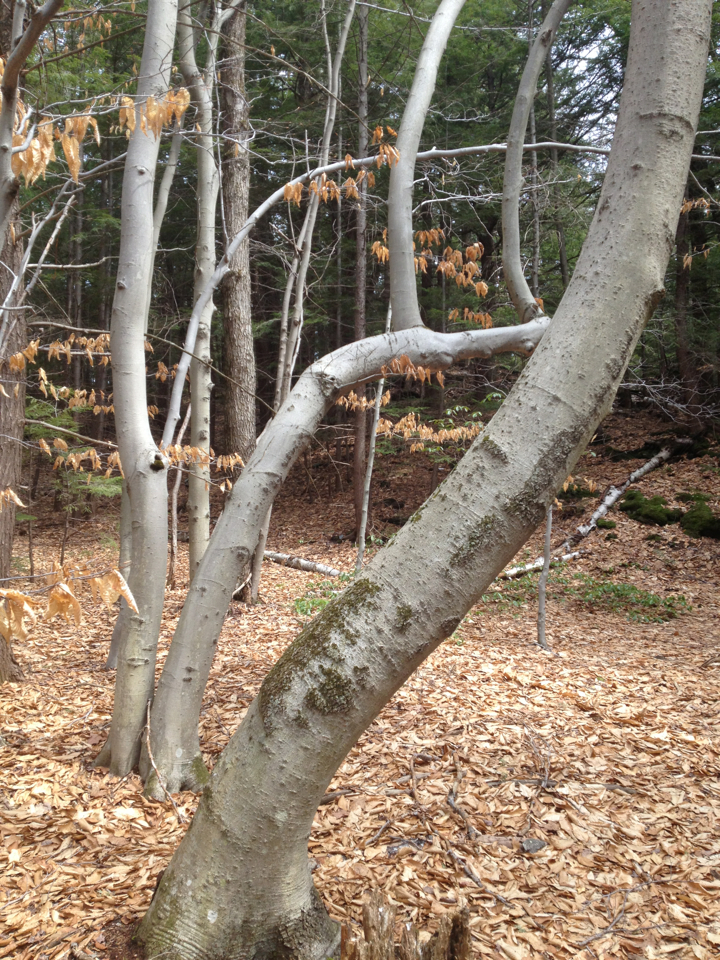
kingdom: Plantae
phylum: Tracheophyta
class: Magnoliopsida
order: Fagales
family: Fagaceae
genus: Fagus
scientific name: Fagus grandifolia
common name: American beech
